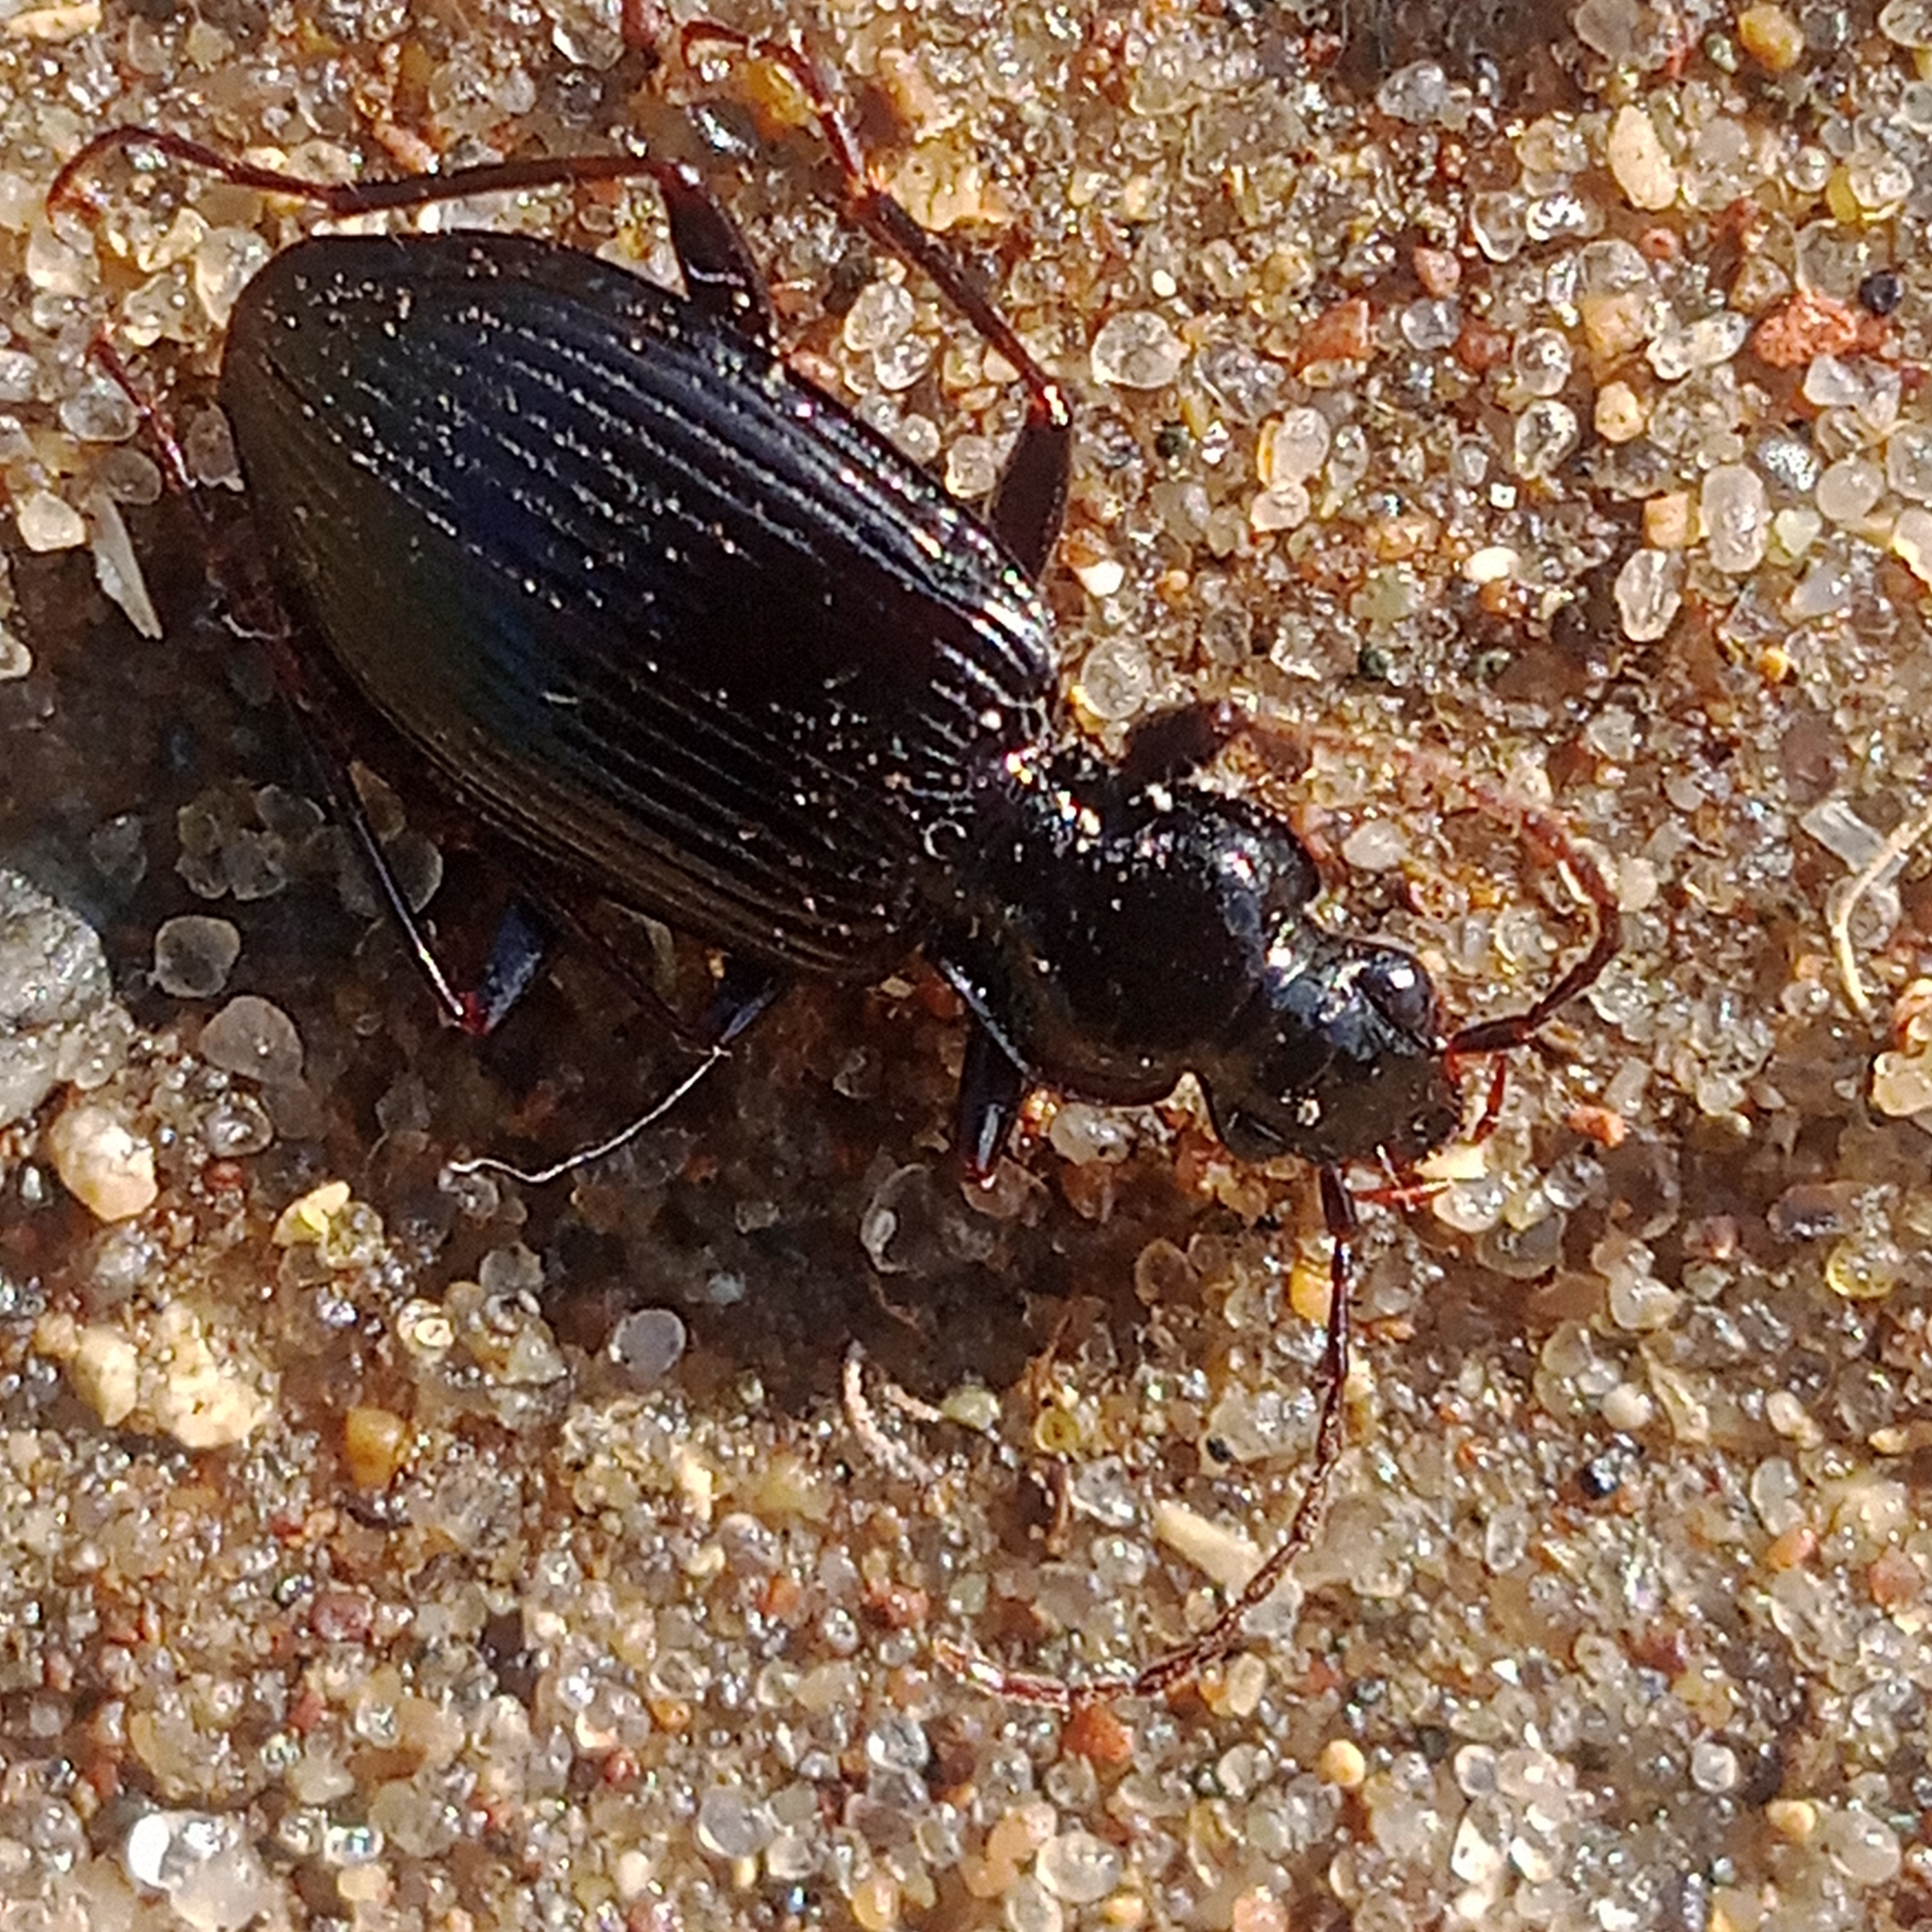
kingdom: Animalia
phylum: Arthropoda
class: Insecta
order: Coleoptera
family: Carabidae
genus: Platynus
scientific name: Platynus assimilis
